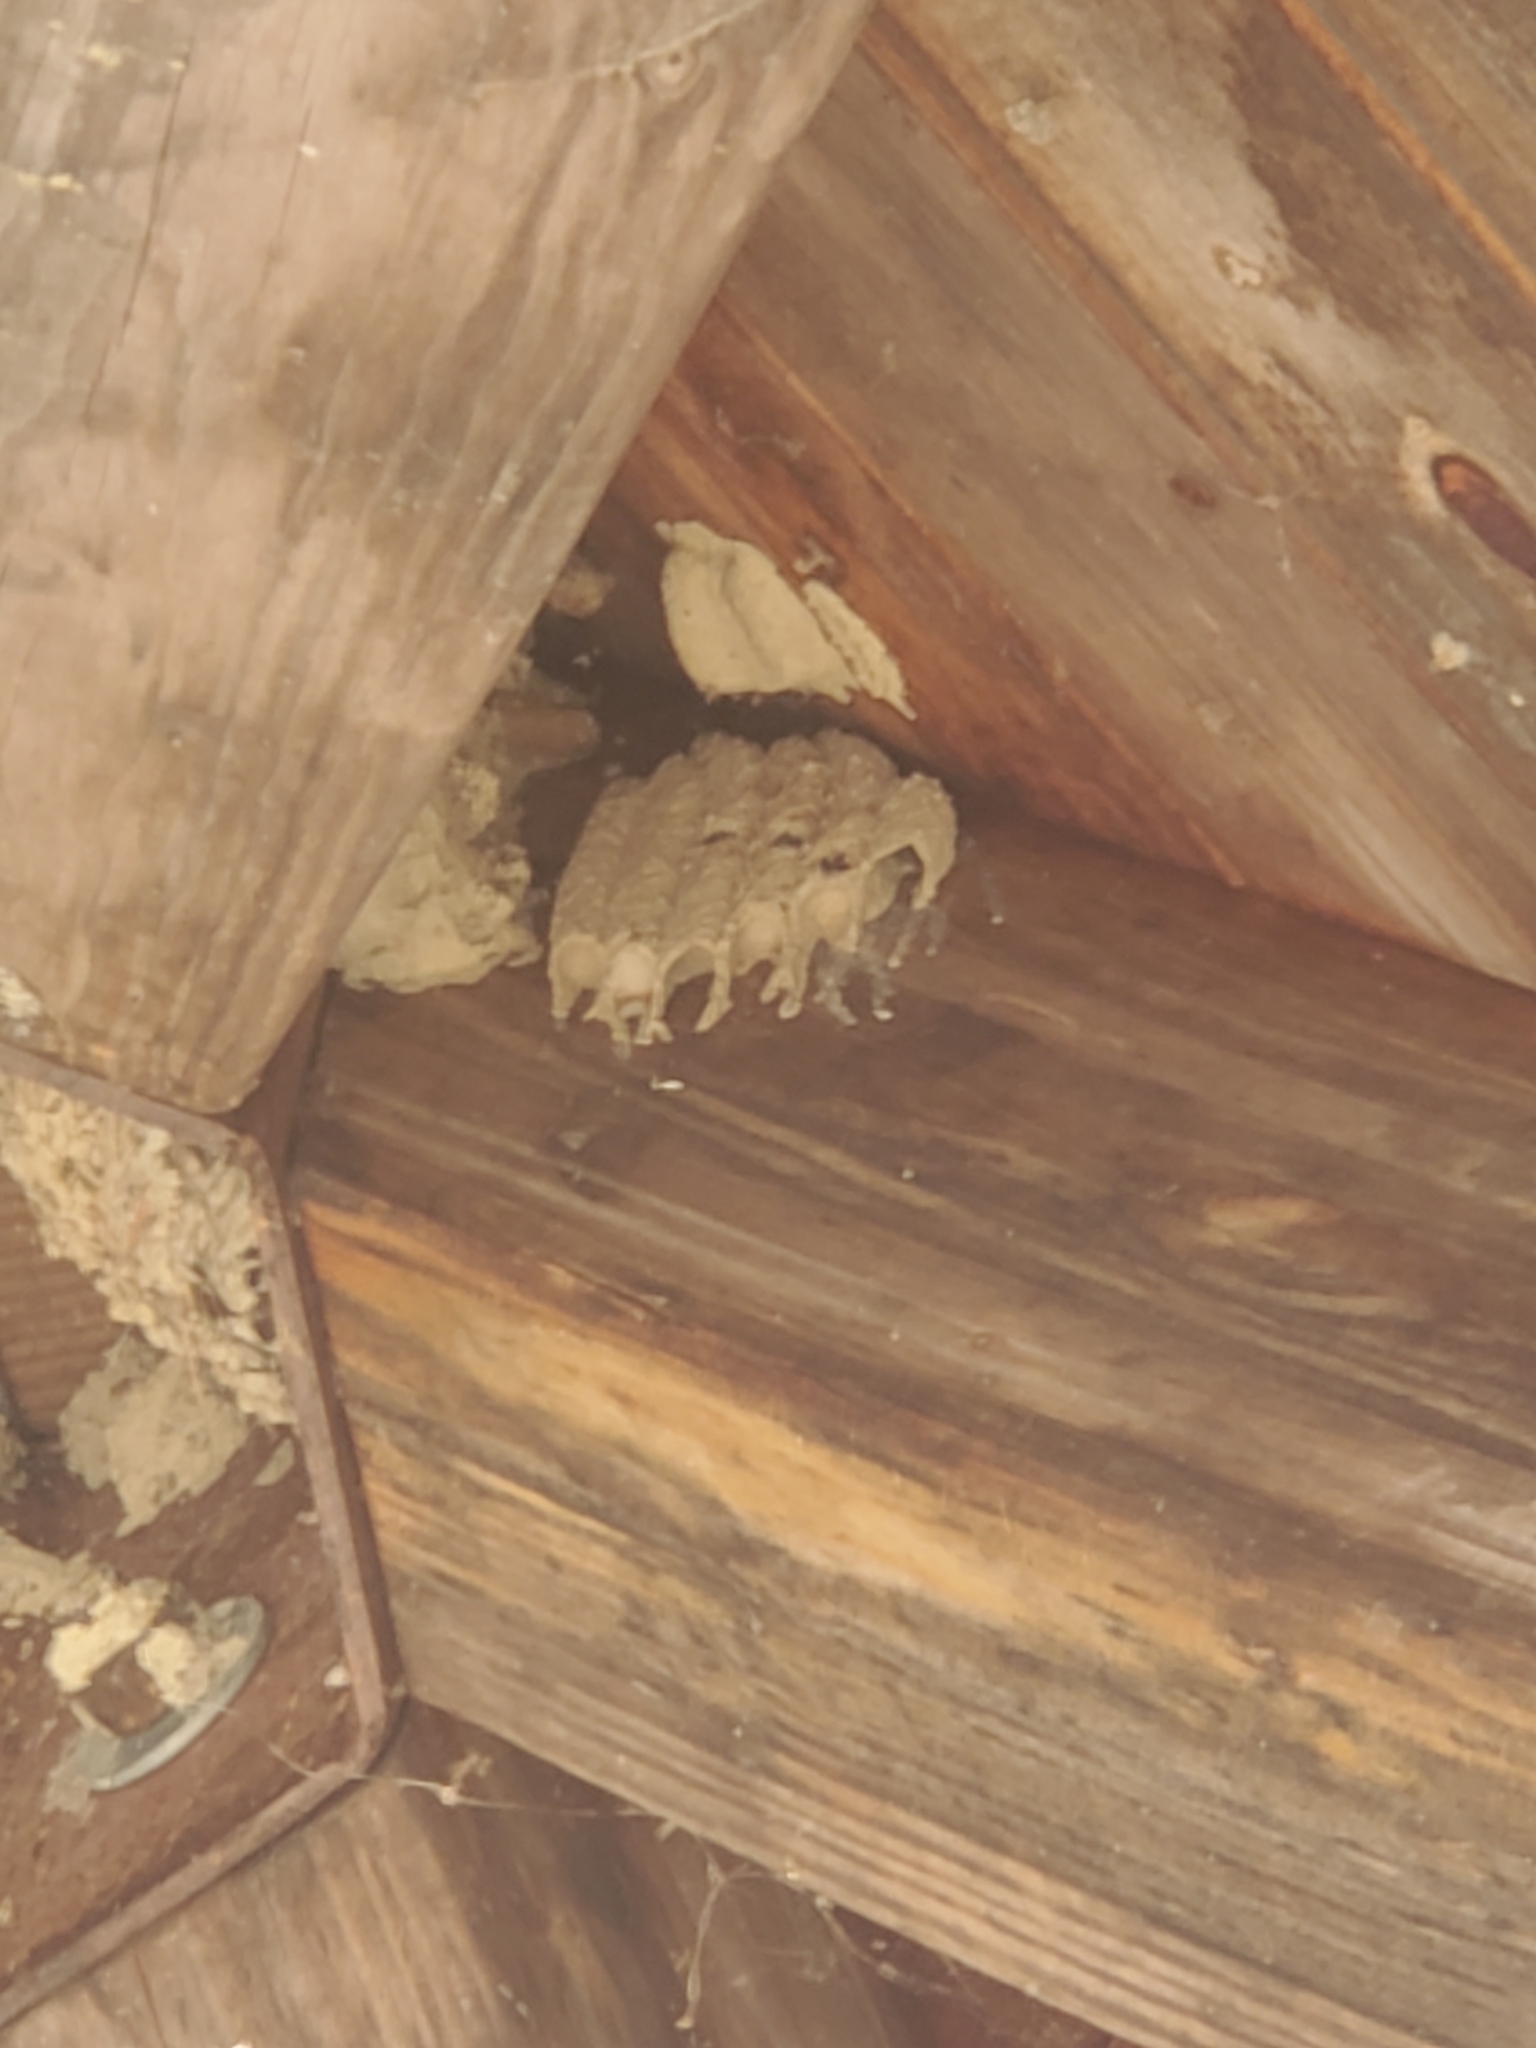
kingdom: Animalia
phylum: Arthropoda
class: Insecta
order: Hymenoptera
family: Crabronidae
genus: Trypoxylon
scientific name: Trypoxylon politum
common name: Organ-pipe mud-dauber wasp
